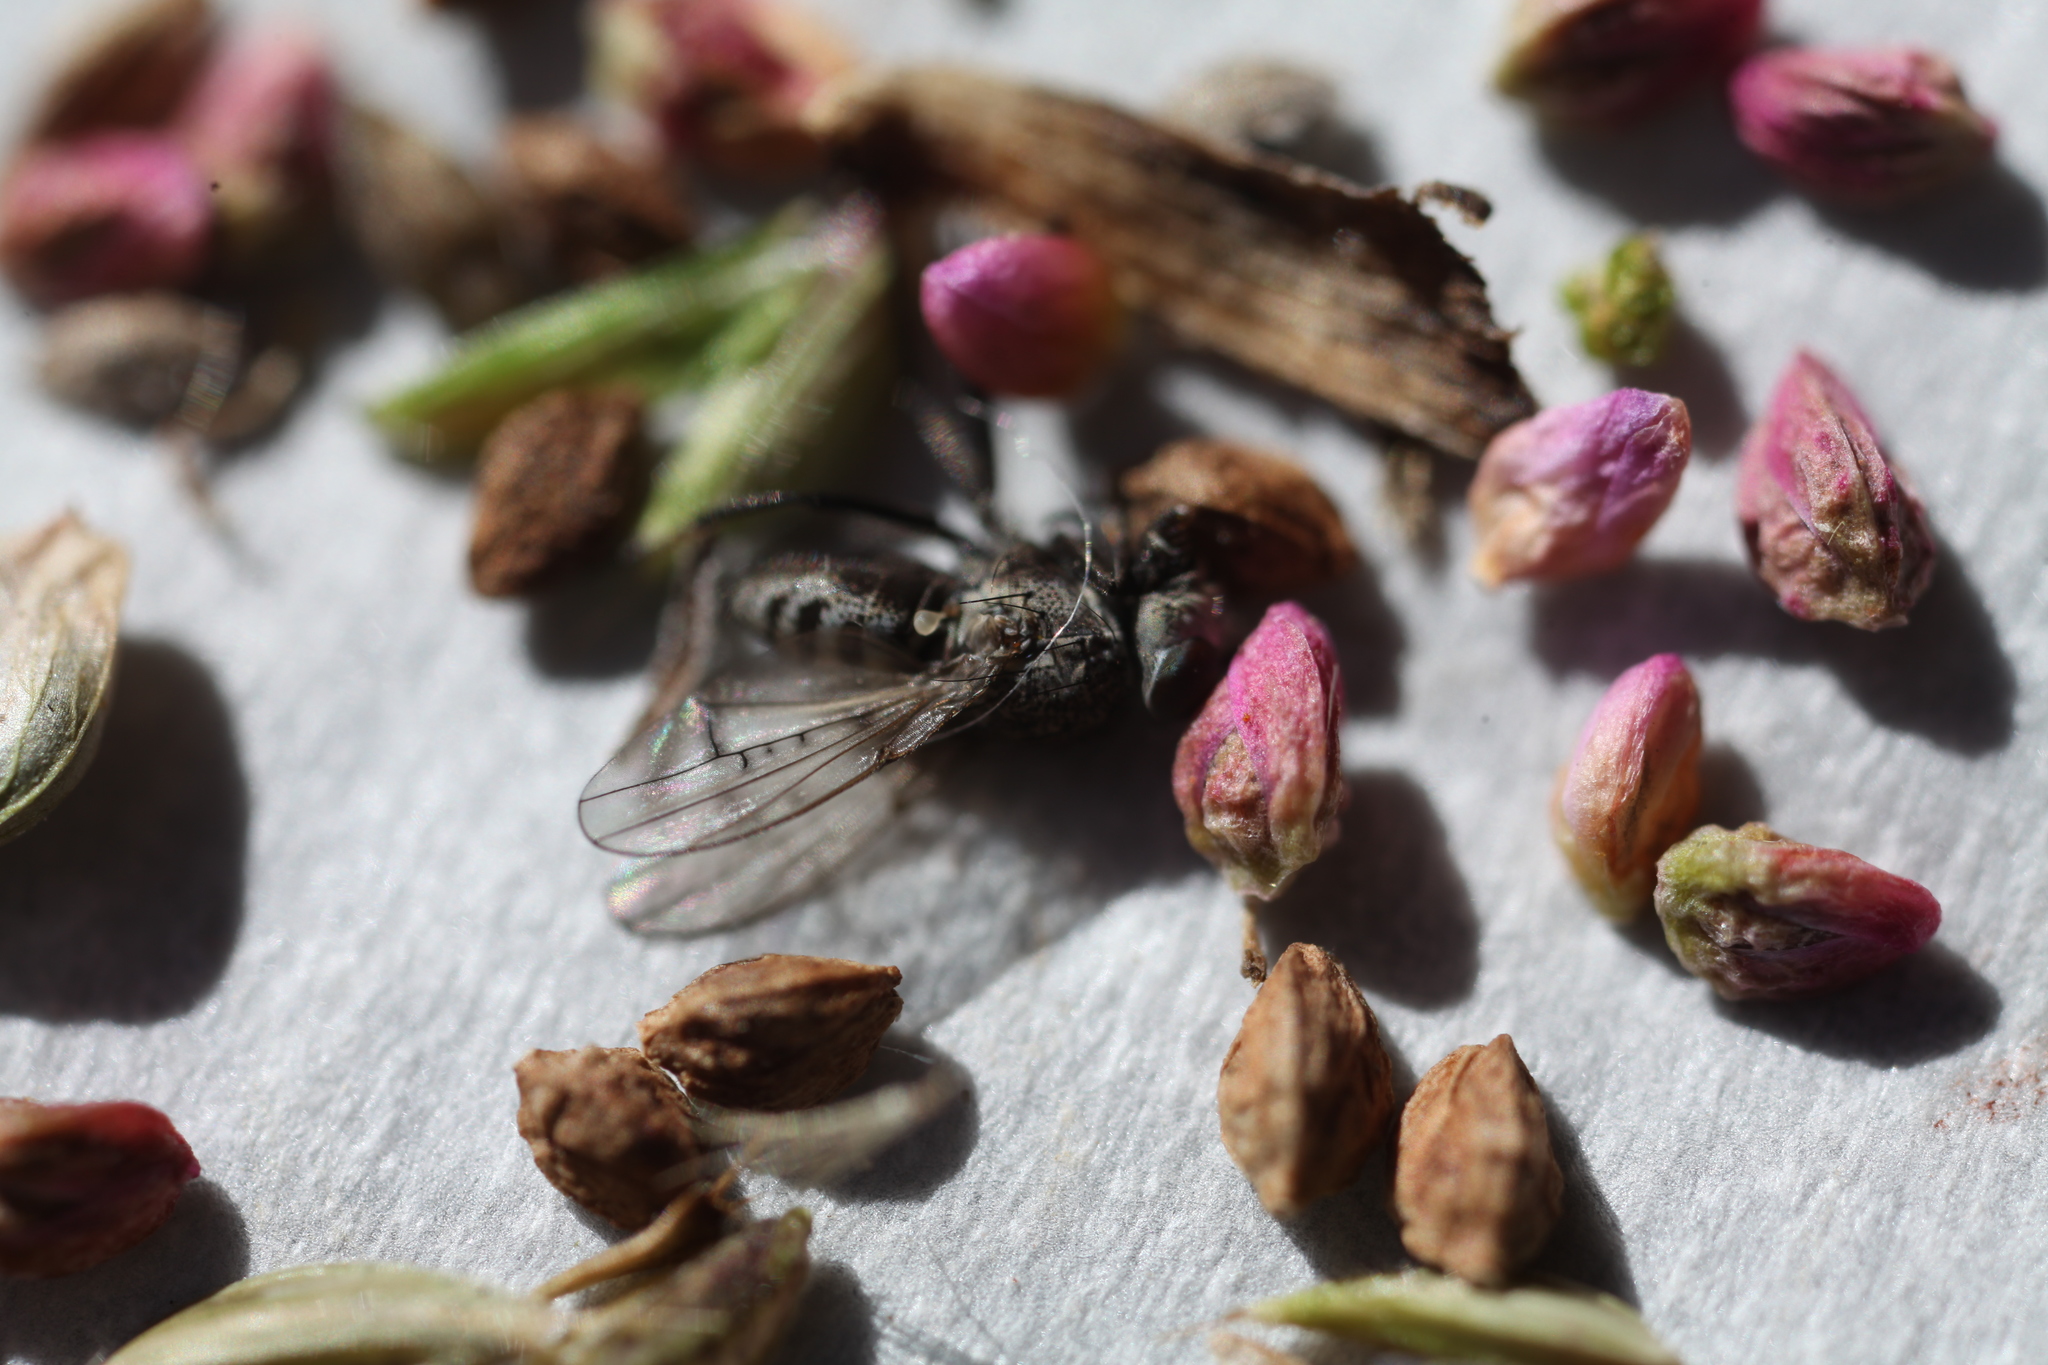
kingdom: Animalia
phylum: Arthropoda
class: Insecta
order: Diptera
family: Ephydridae
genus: Paralimna
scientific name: Paralimna punctipennis
